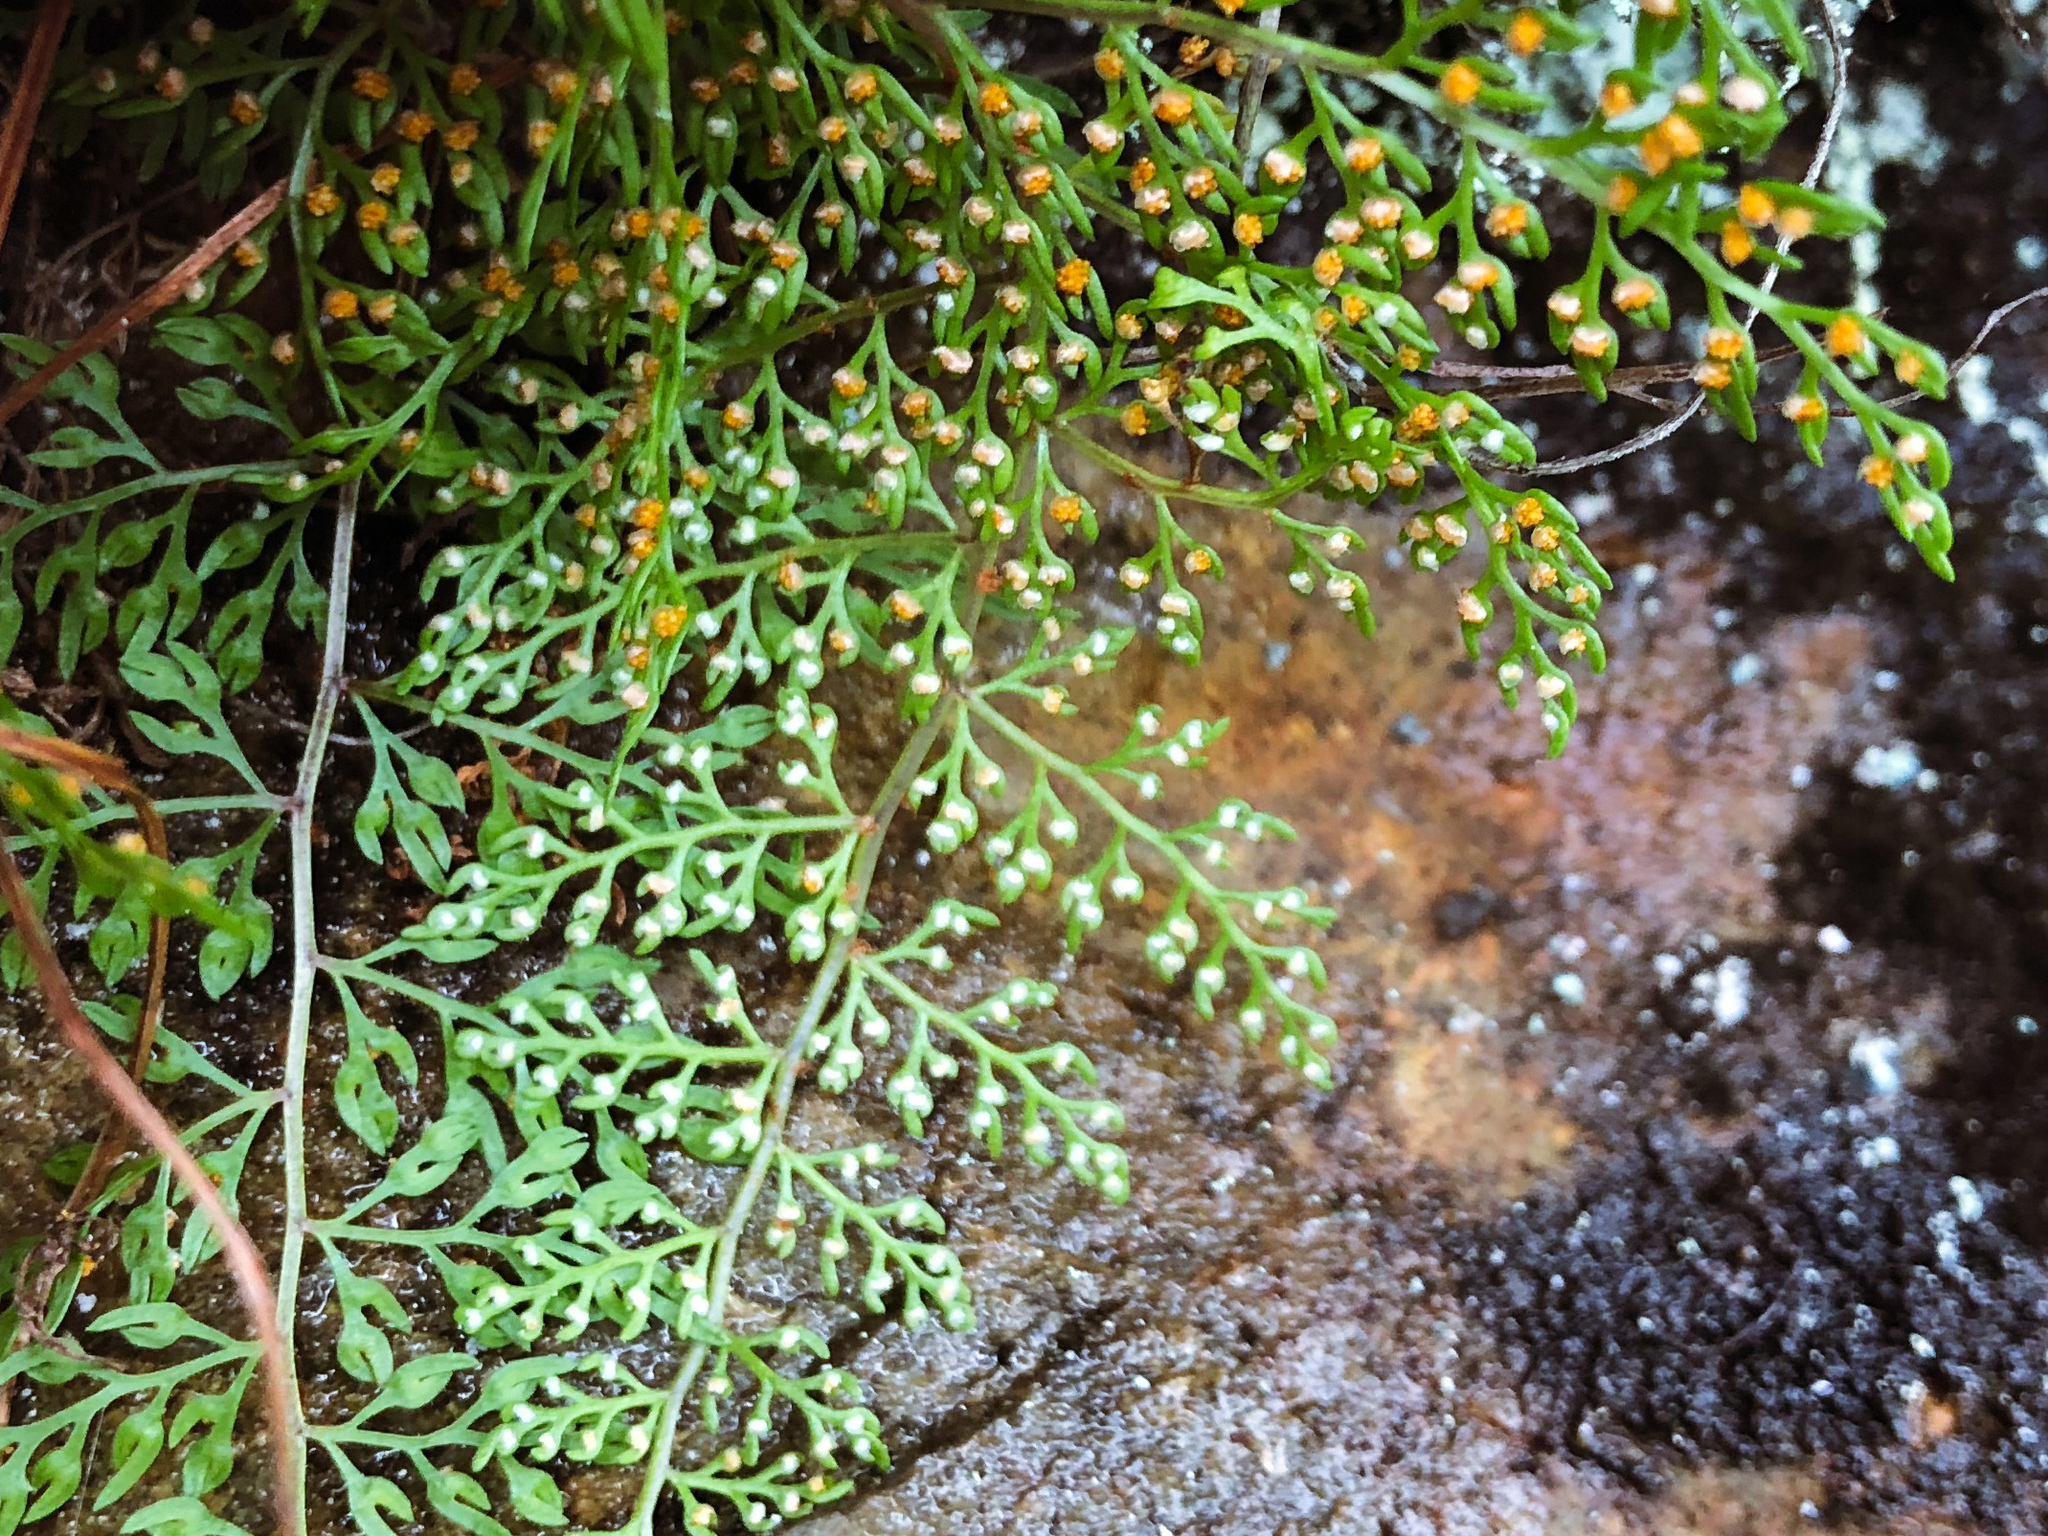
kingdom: Plantae
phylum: Tracheophyta
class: Polypodiopsida
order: Polypodiales
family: Davalliaceae
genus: Davallia
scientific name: Davallia perdurans
